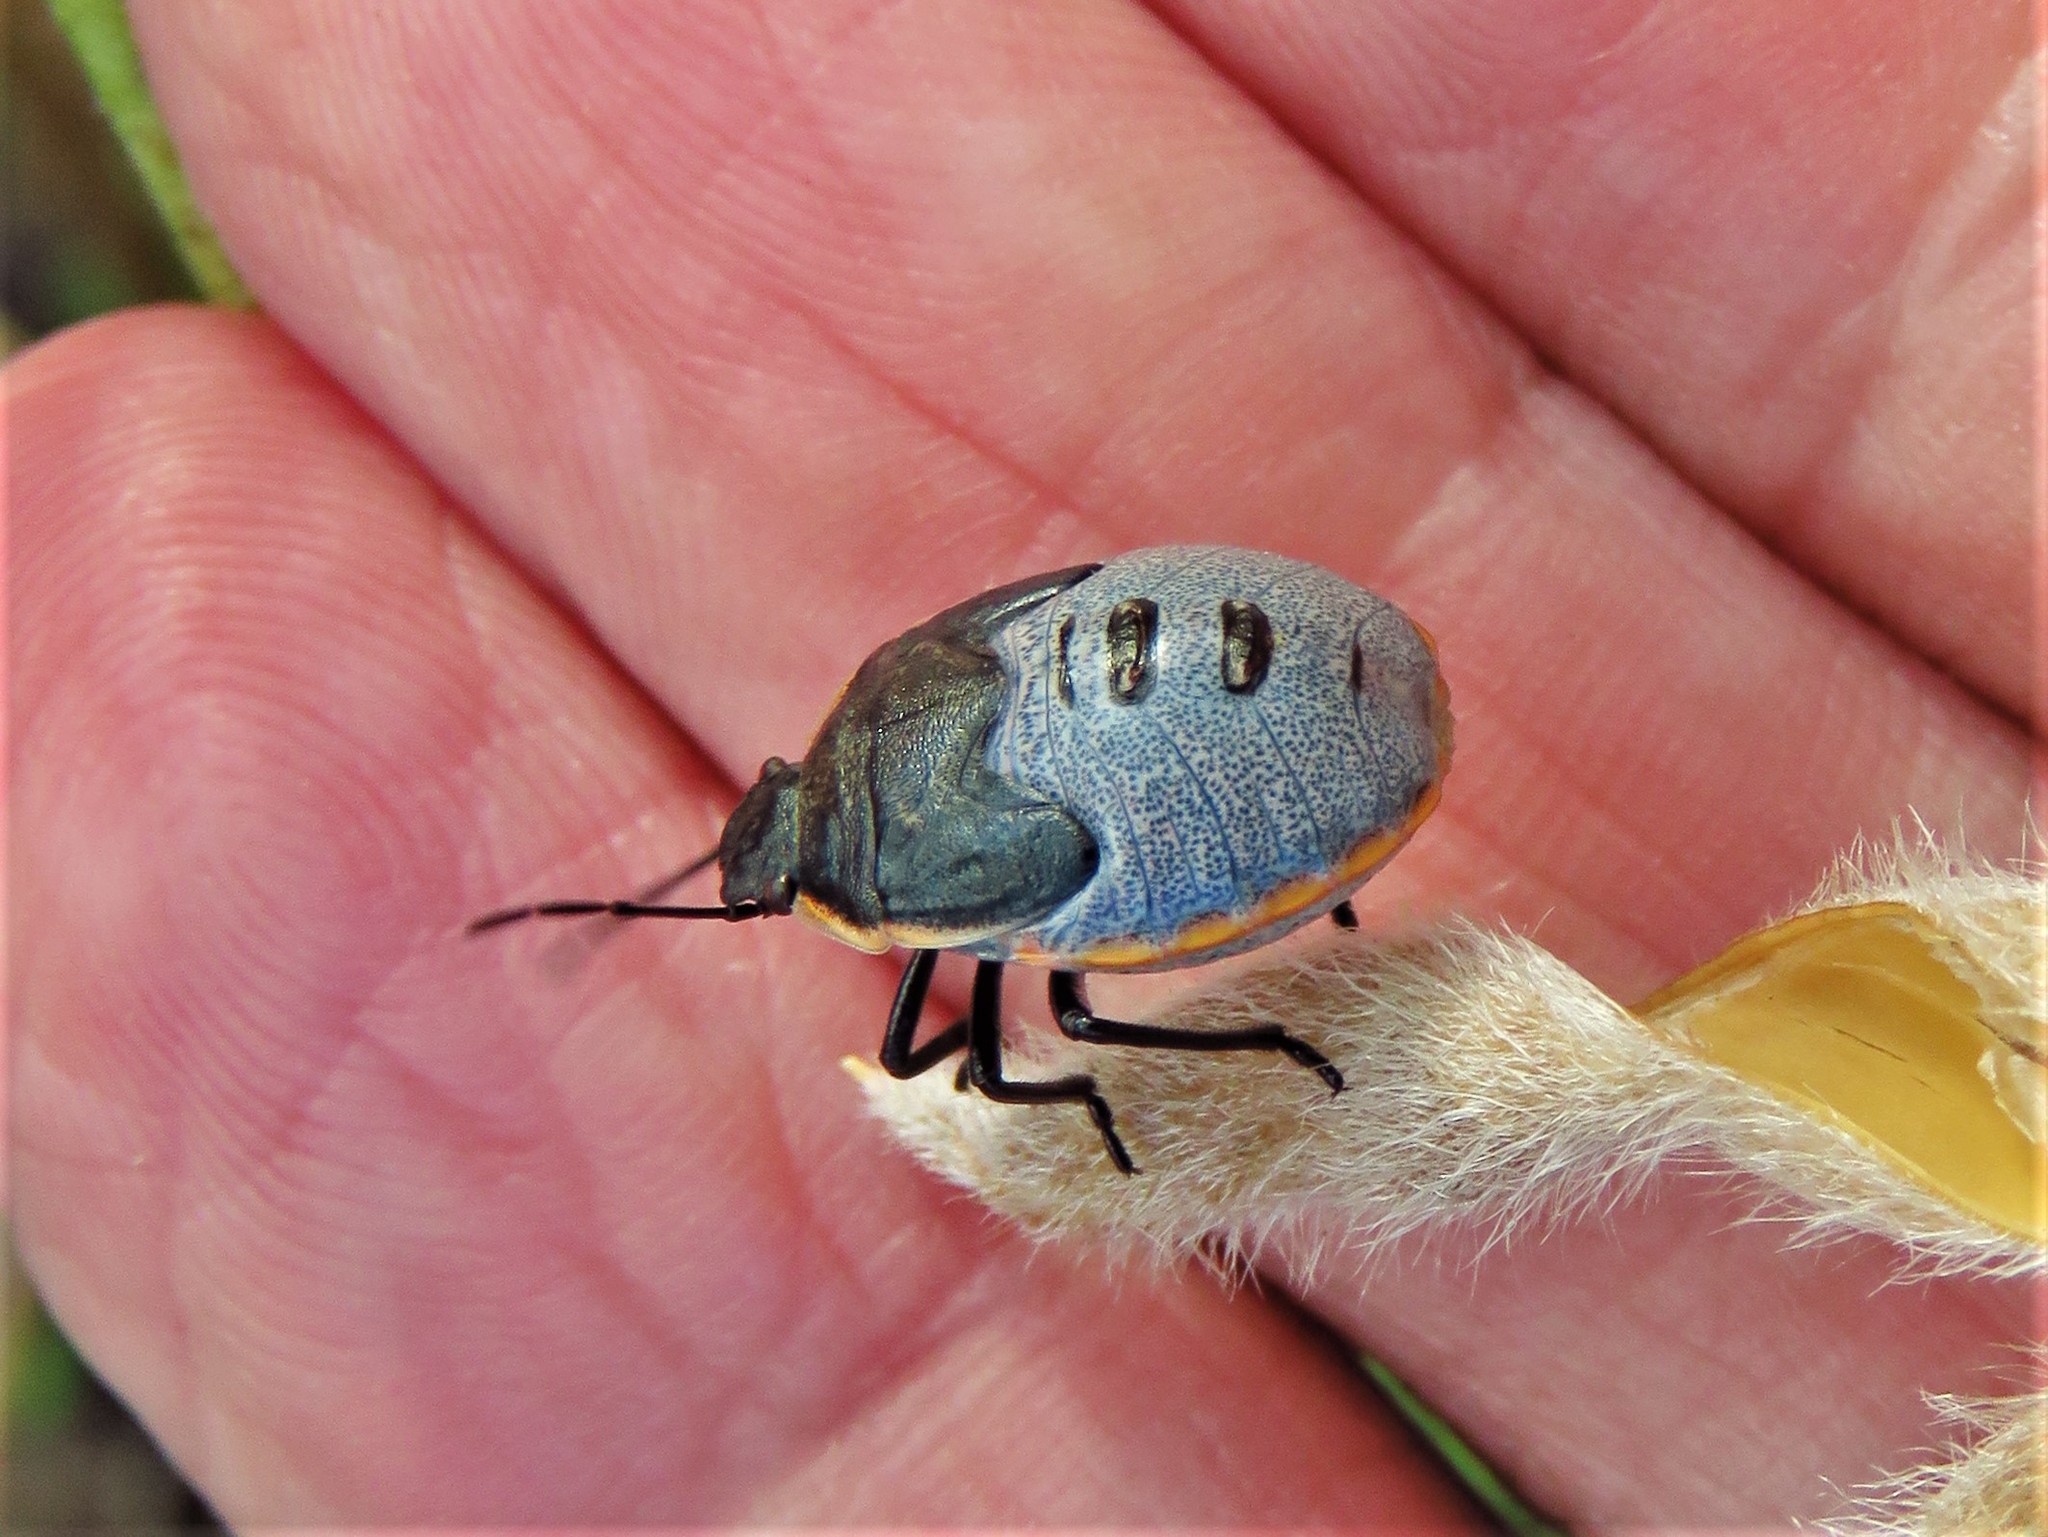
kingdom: Animalia
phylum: Arthropoda
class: Insecta
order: Hemiptera
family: Pentatomidae
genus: Chlorochroa
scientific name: Chlorochroa ligata
